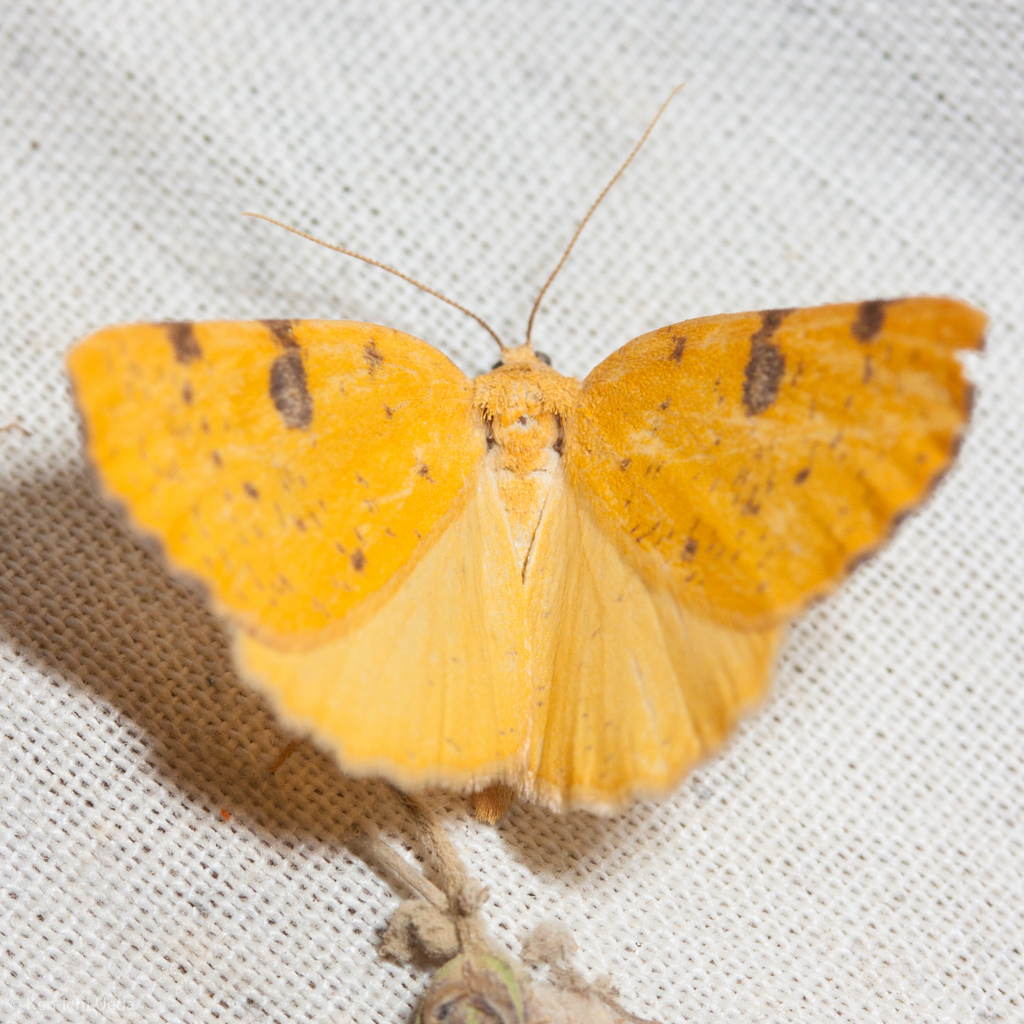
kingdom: Animalia
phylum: Arthropoda
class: Insecta
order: Lepidoptera
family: Geometridae
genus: Hesperumia
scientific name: Hesperumia sulphuraria
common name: Sulphur moth
